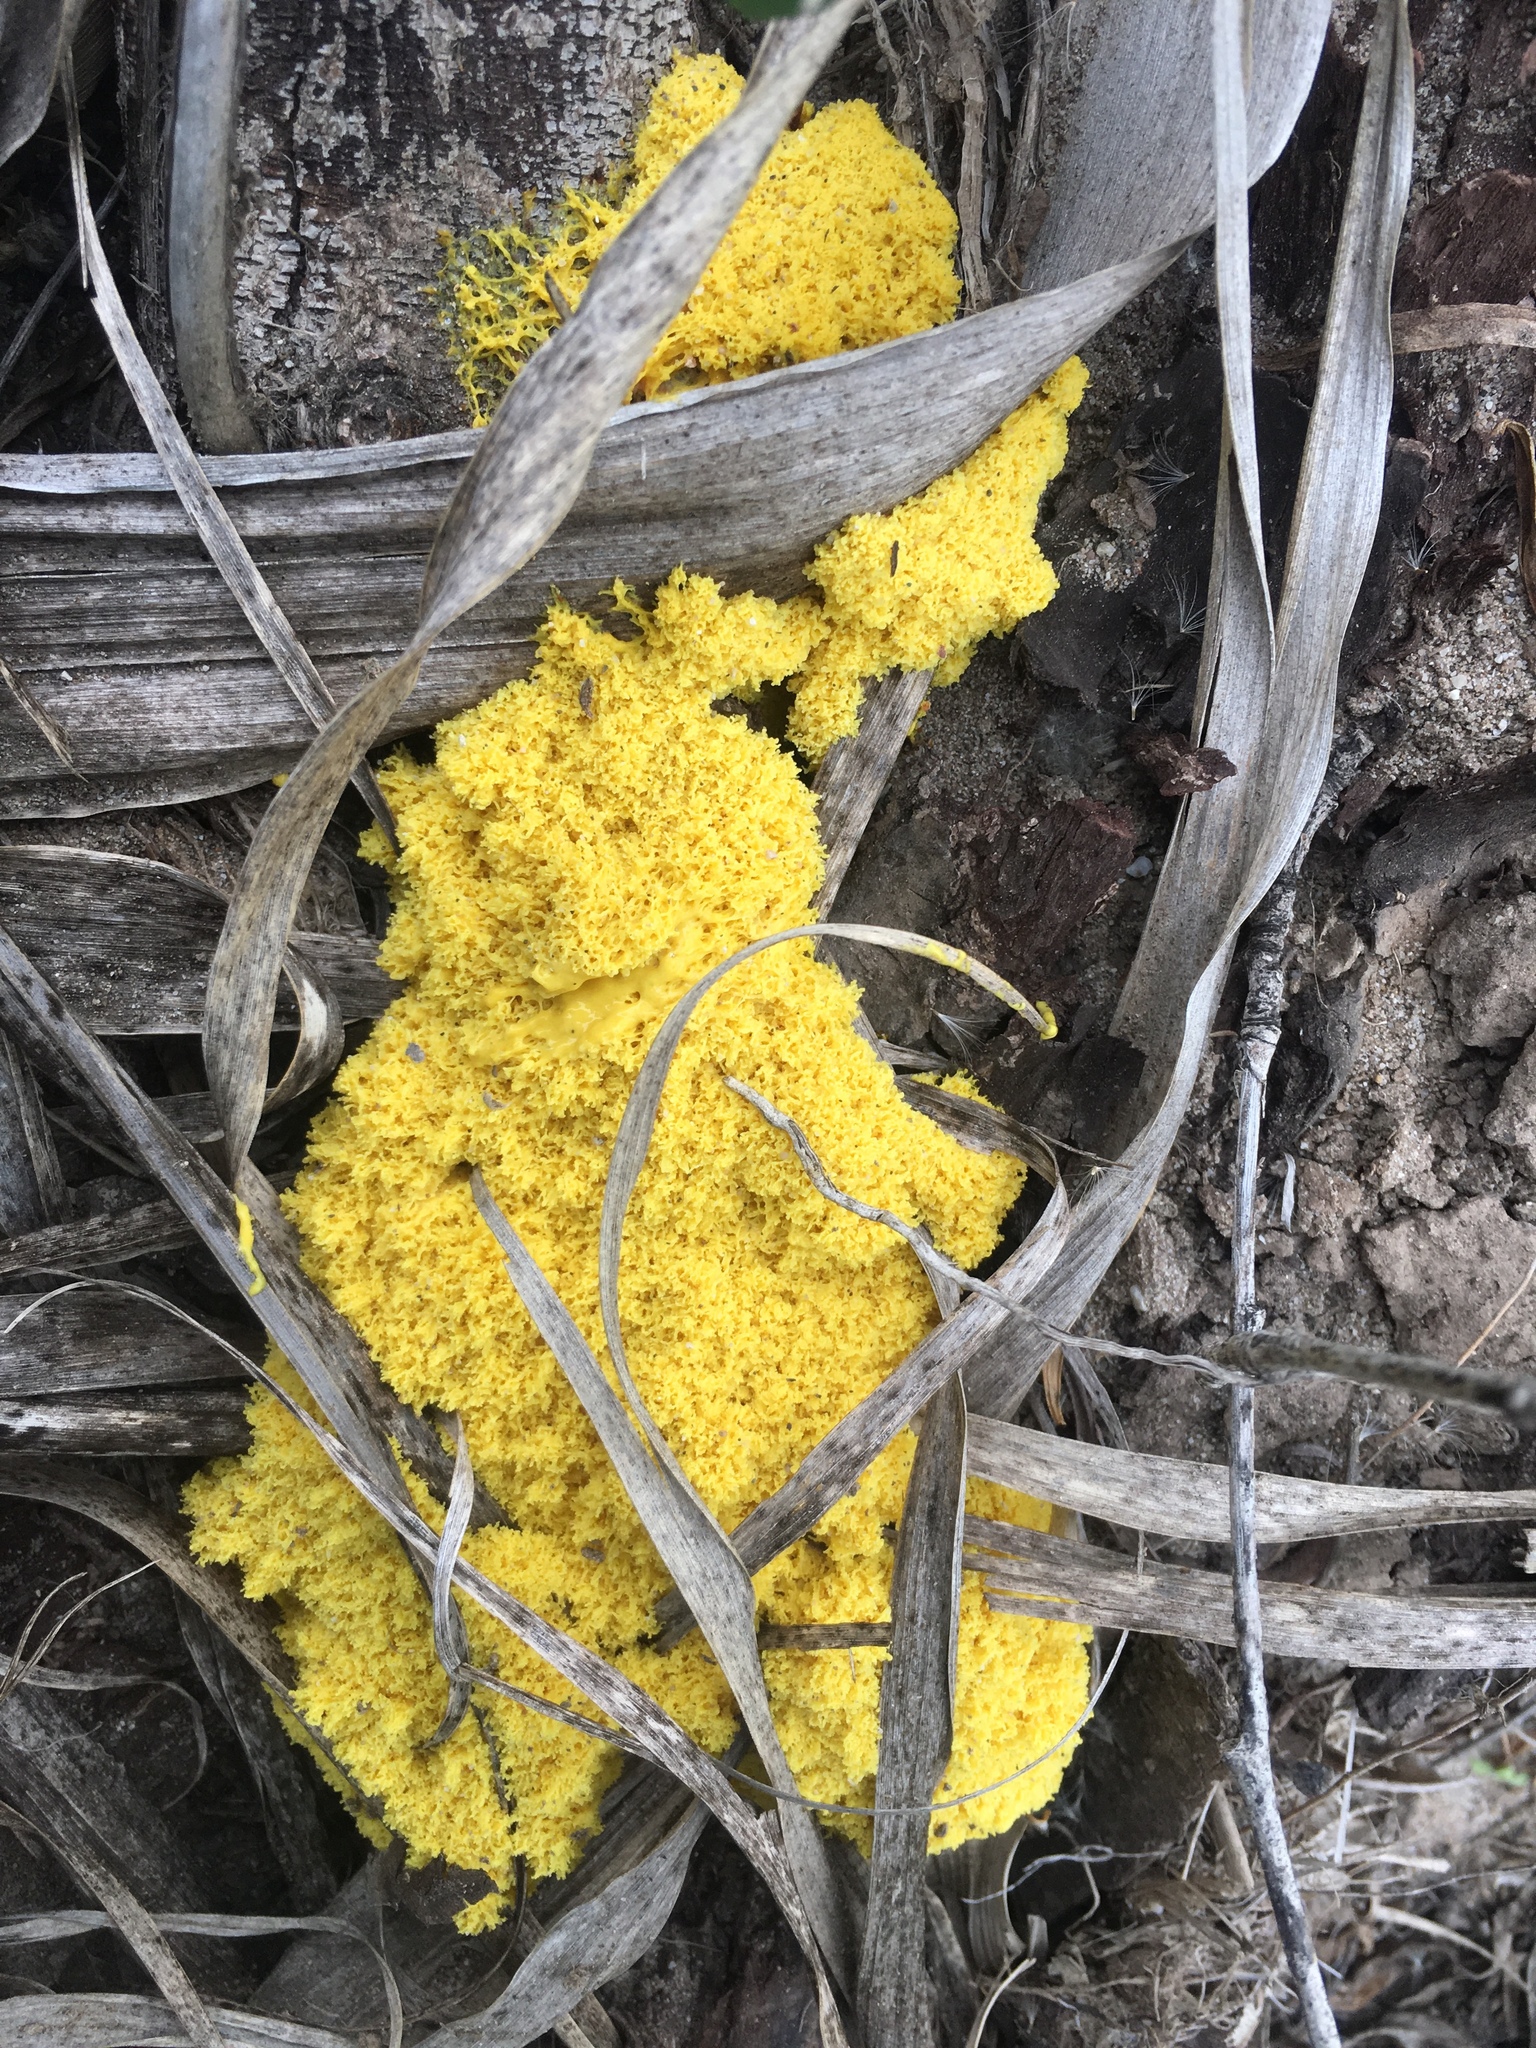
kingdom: Protozoa
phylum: Mycetozoa
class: Myxomycetes
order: Physarales
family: Physaraceae
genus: Fuligo
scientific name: Fuligo septica
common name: Dog vomit slime mold
